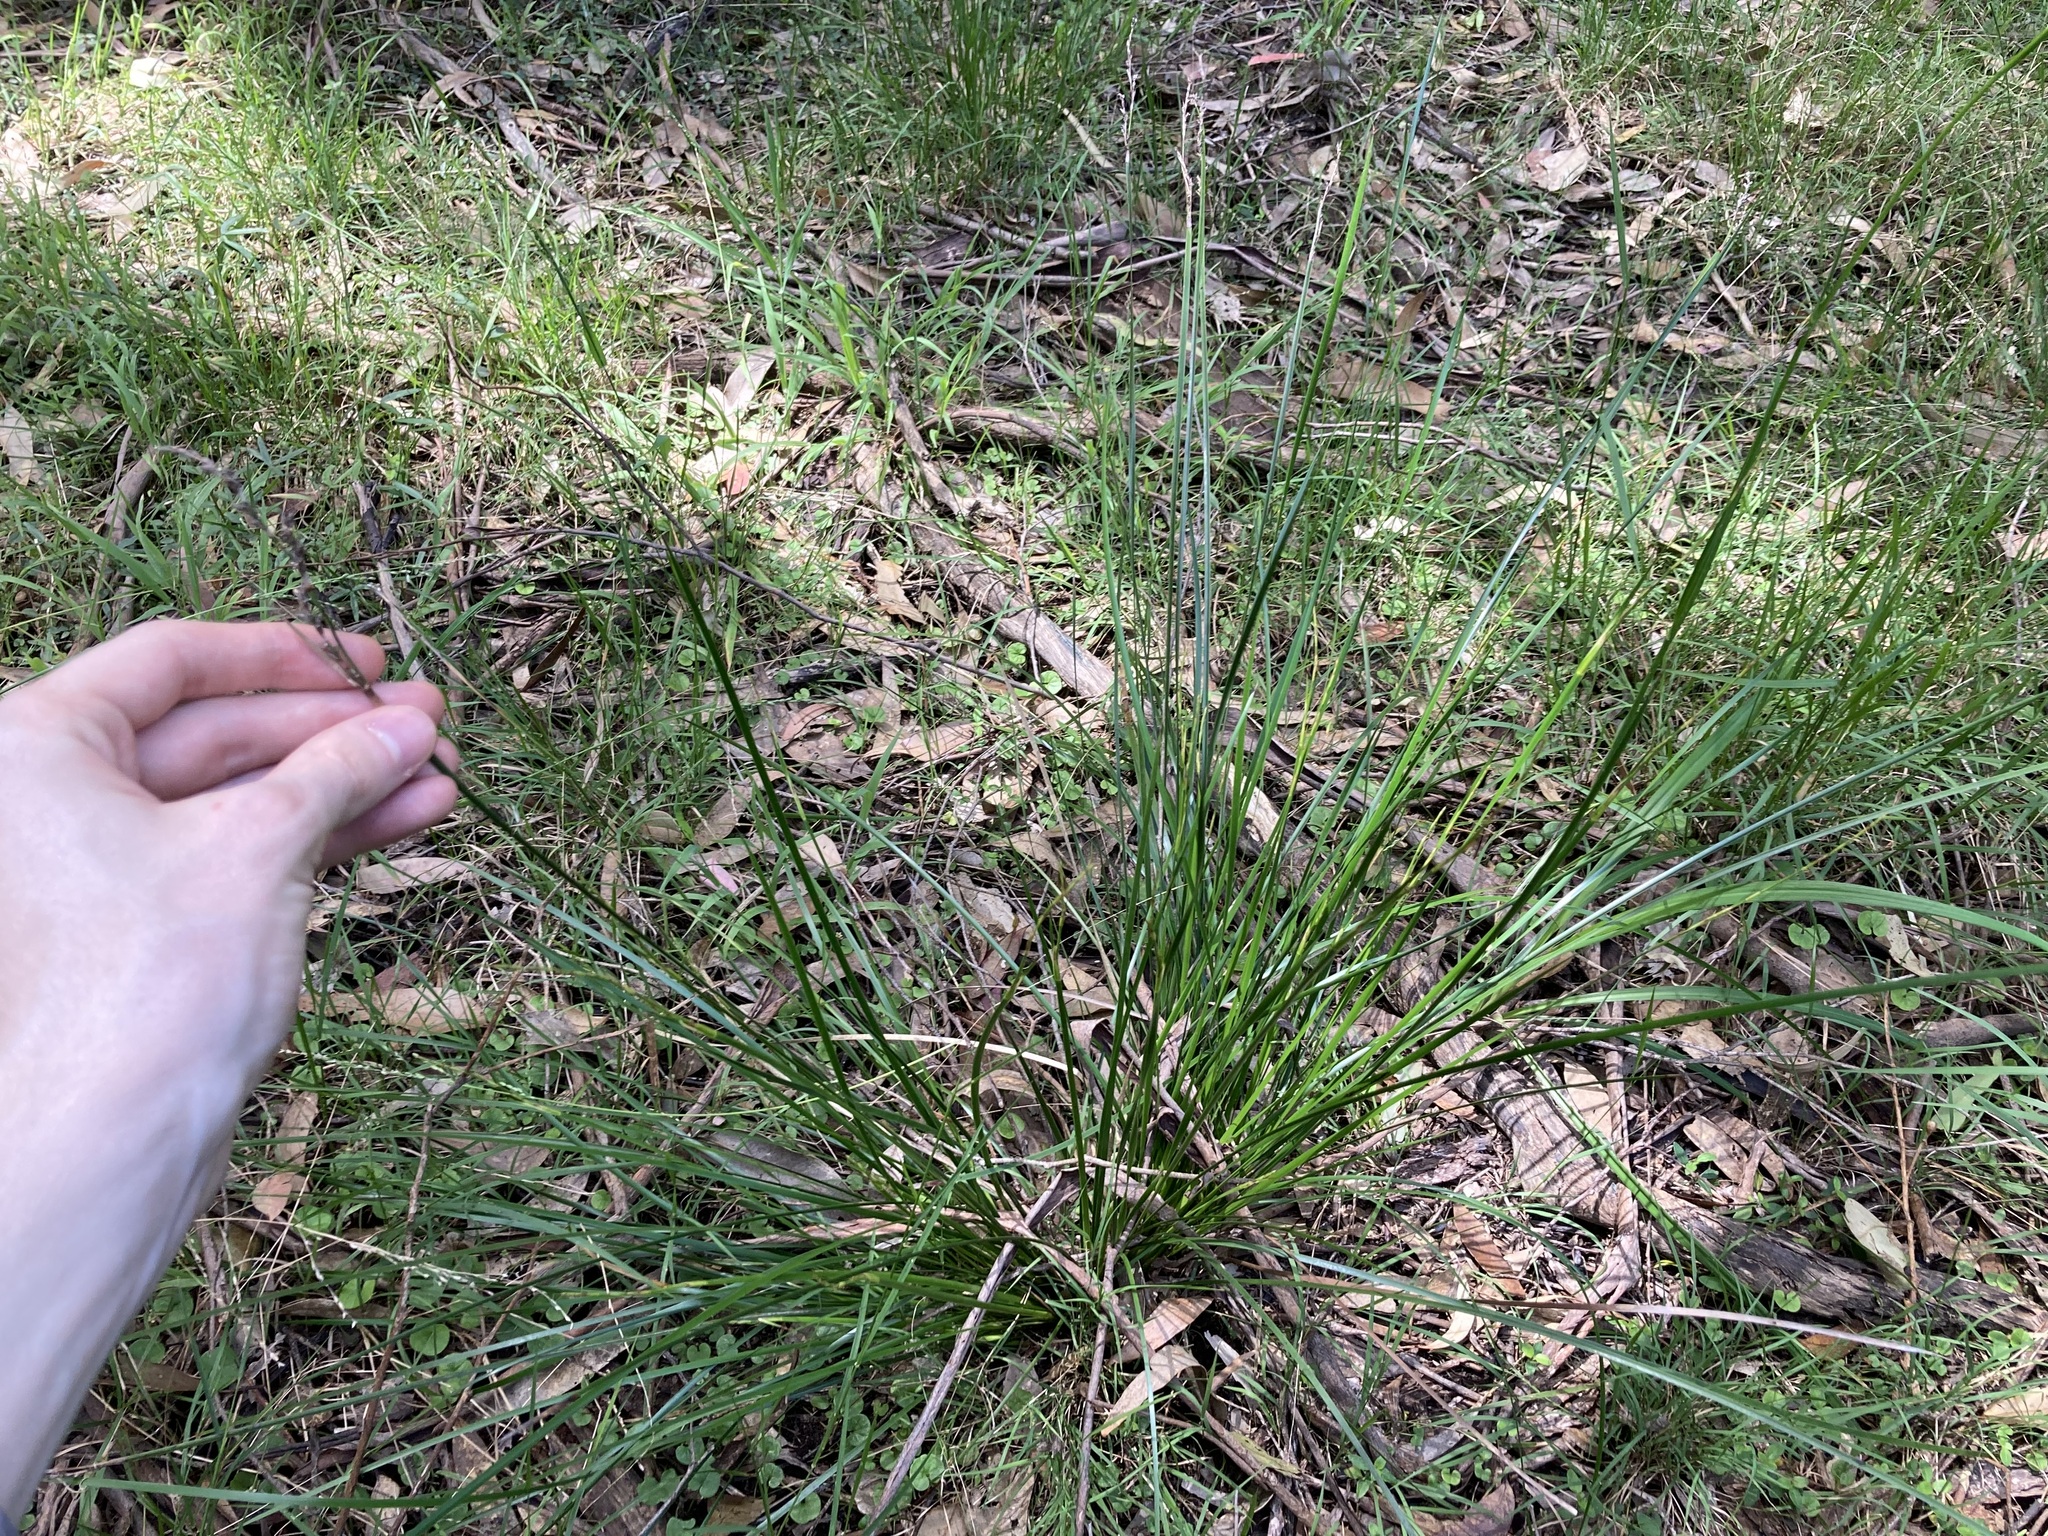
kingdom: Plantae
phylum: Tracheophyta
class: Liliopsida
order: Poales
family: Cyperaceae
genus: Lepidosperma
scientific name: Lepidosperma laterale
